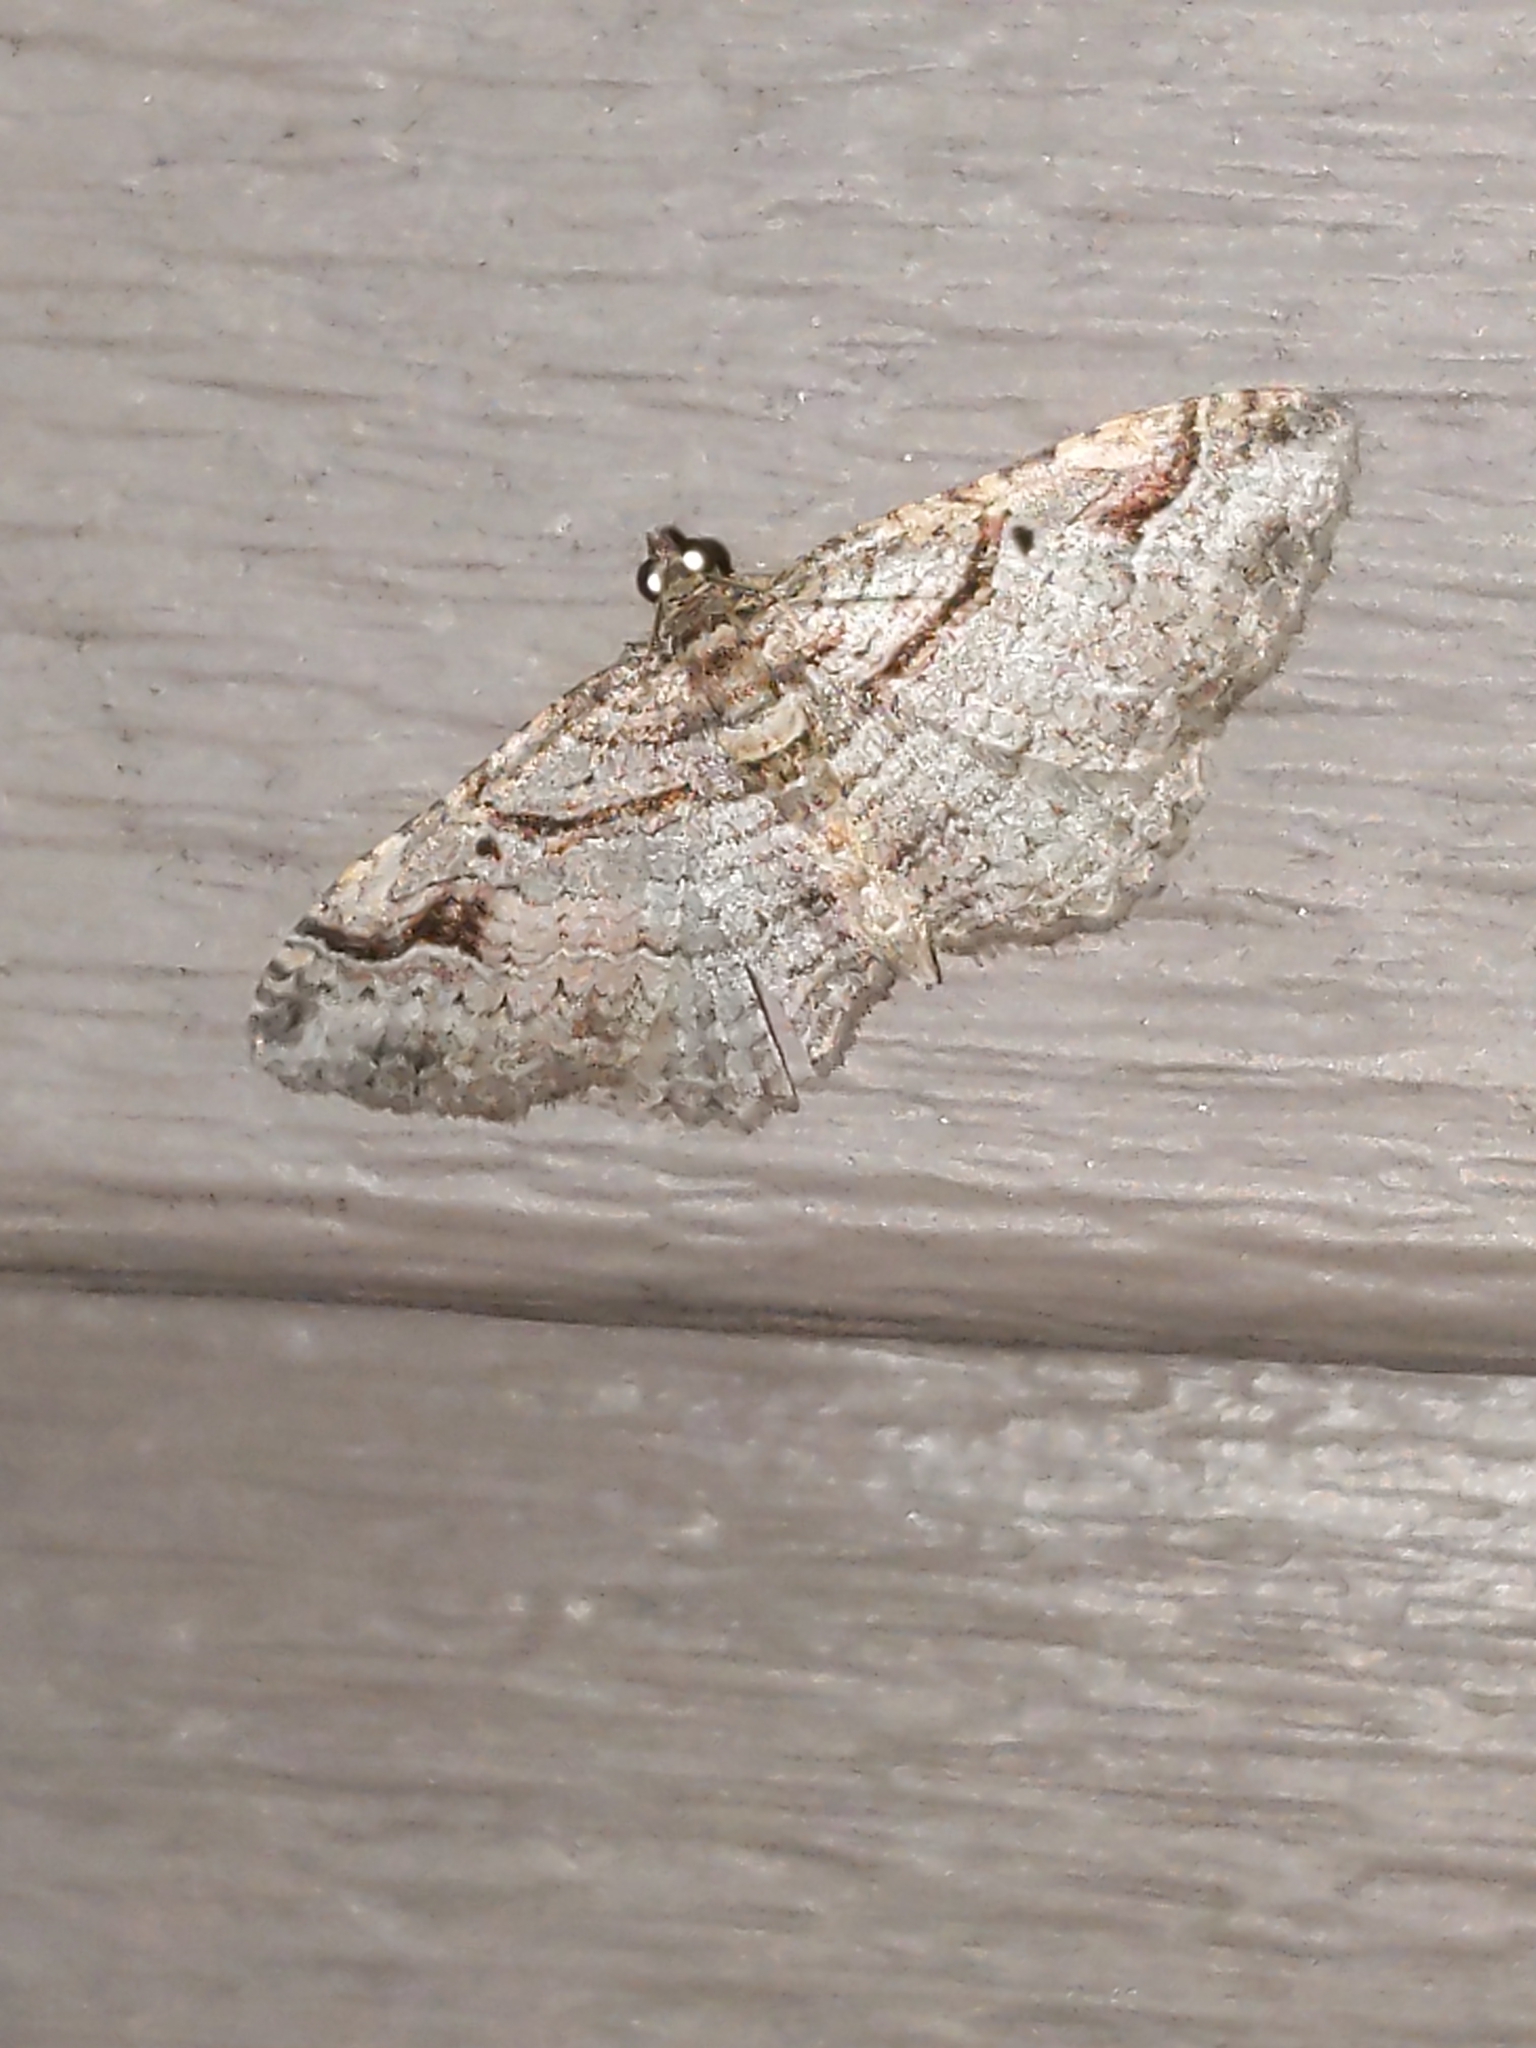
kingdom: Animalia
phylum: Arthropoda
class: Insecta
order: Lepidoptera
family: Geometridae
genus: Costaconvexa
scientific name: Costaconvexa centrostrigaria
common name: Bent-line carpet
